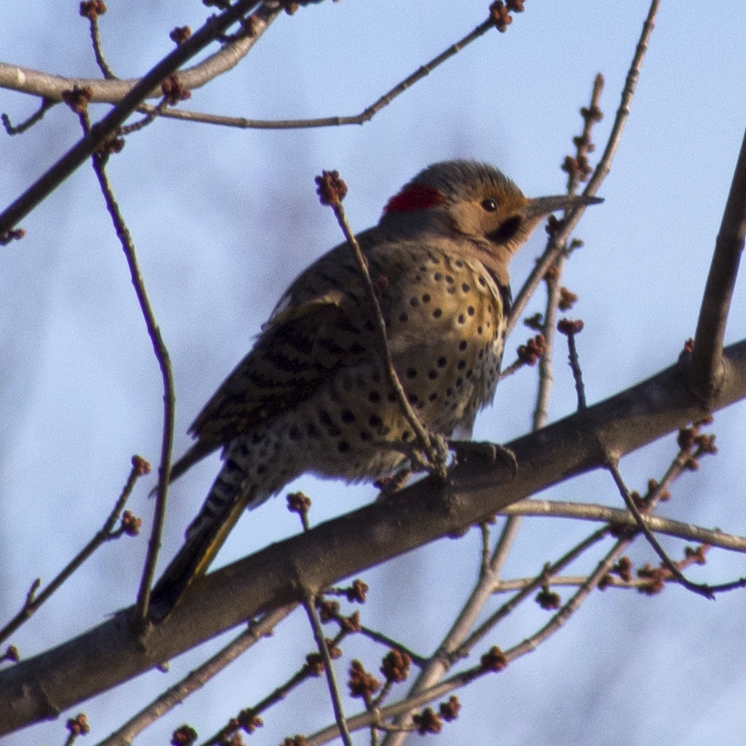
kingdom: Animalia
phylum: Chordata
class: Aves
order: Piciformes
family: Picidae
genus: Colaptes
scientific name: Colaptes auratus
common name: Northern flicker
